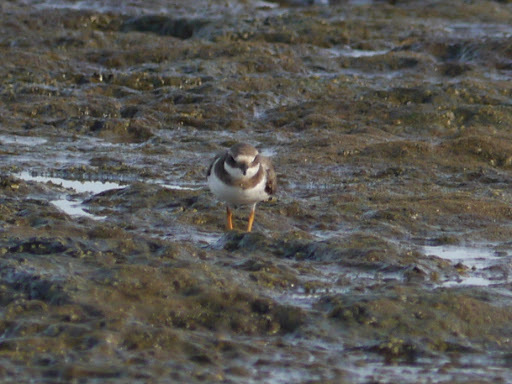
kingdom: Animalia
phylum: Chordata
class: Aves
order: Charadriiformes
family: Charadriidae
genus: Charadrius
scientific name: Charadrius hiaticula
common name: Common ringed plover
